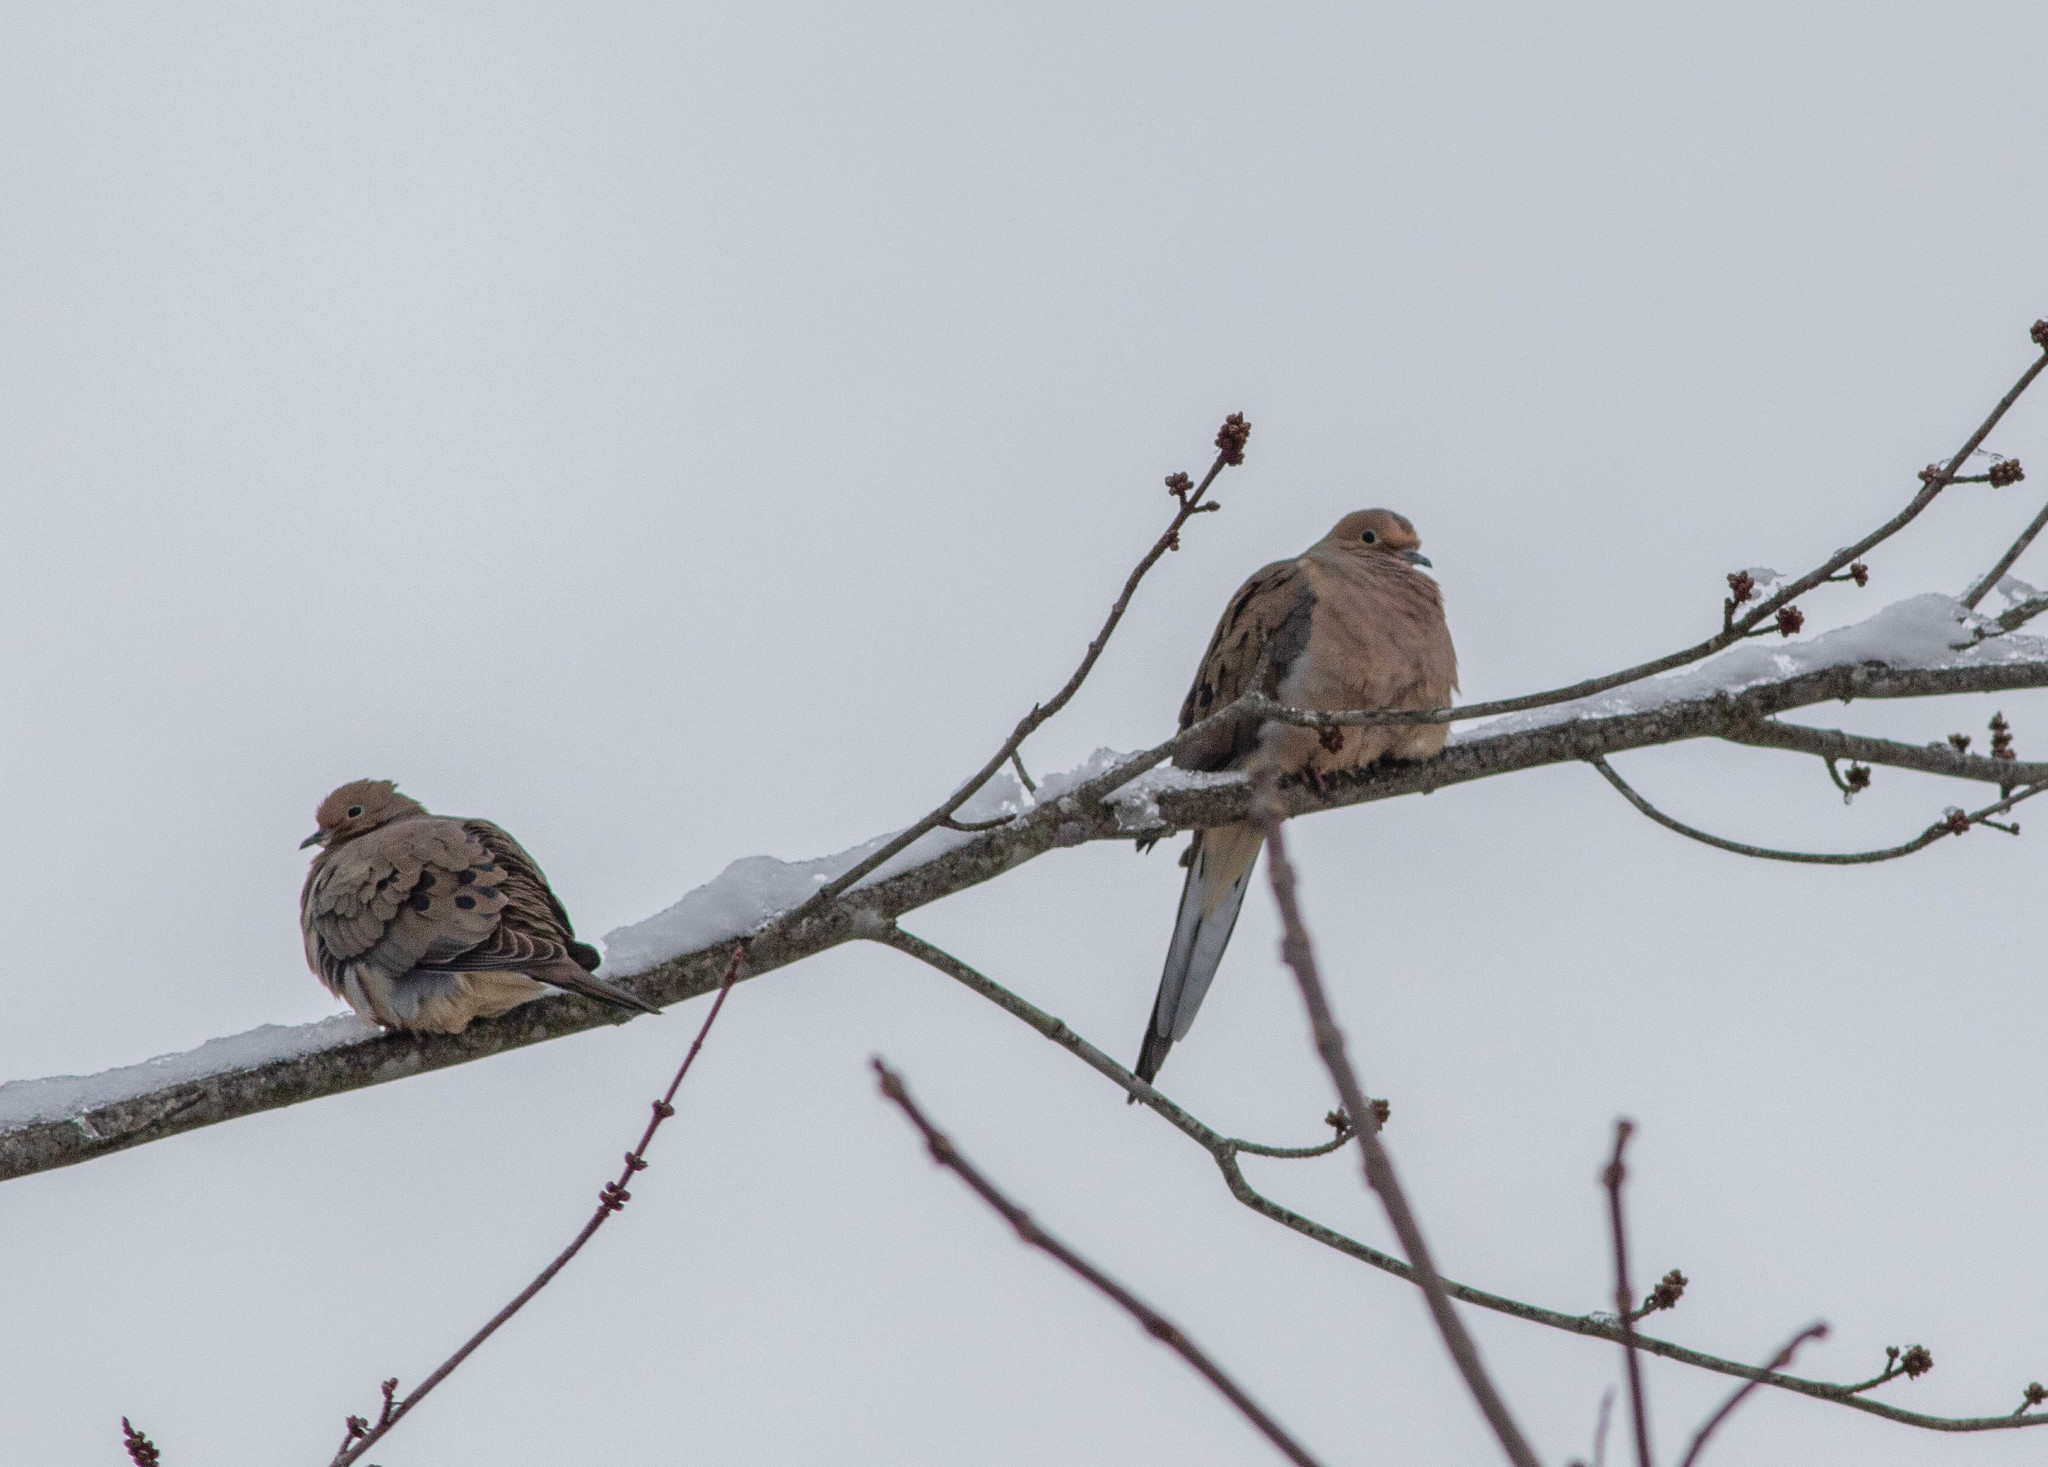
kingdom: Animalia
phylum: Chordata
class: Aves
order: Columbiformes
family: Columbidae
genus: Zenaida
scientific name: Zenaida macroura
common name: Mourning dove
